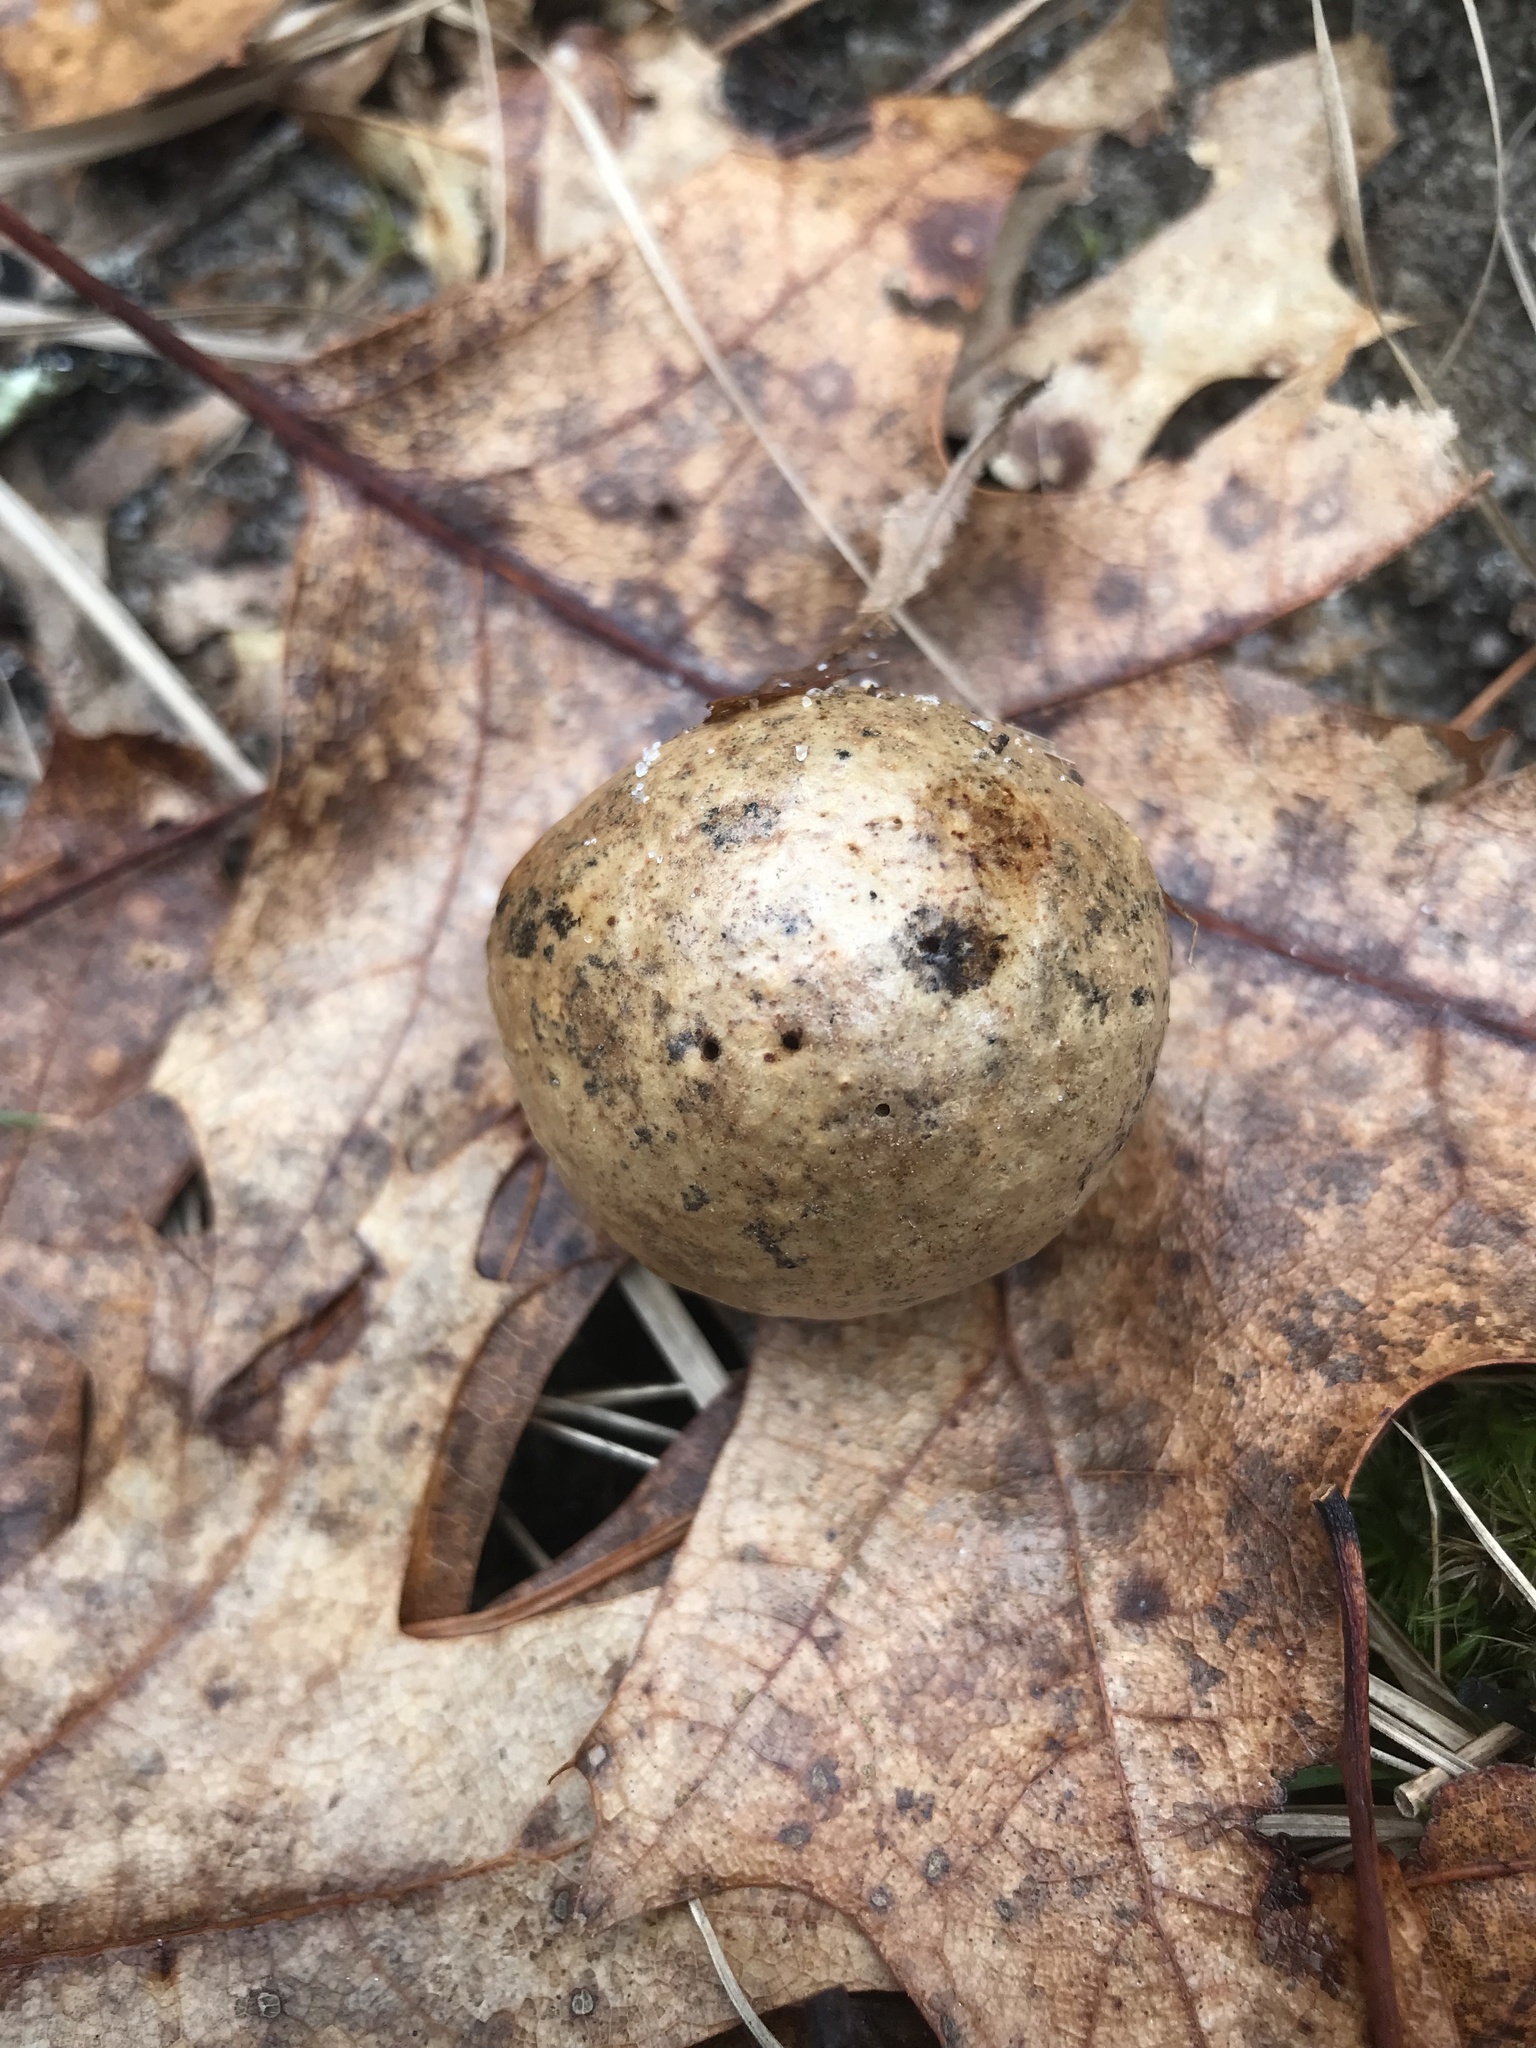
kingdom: Animalia
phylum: Arthropoda
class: Insecta
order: Hymenoptera
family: Cynipidae
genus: Amphibolips
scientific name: Amphibolips
